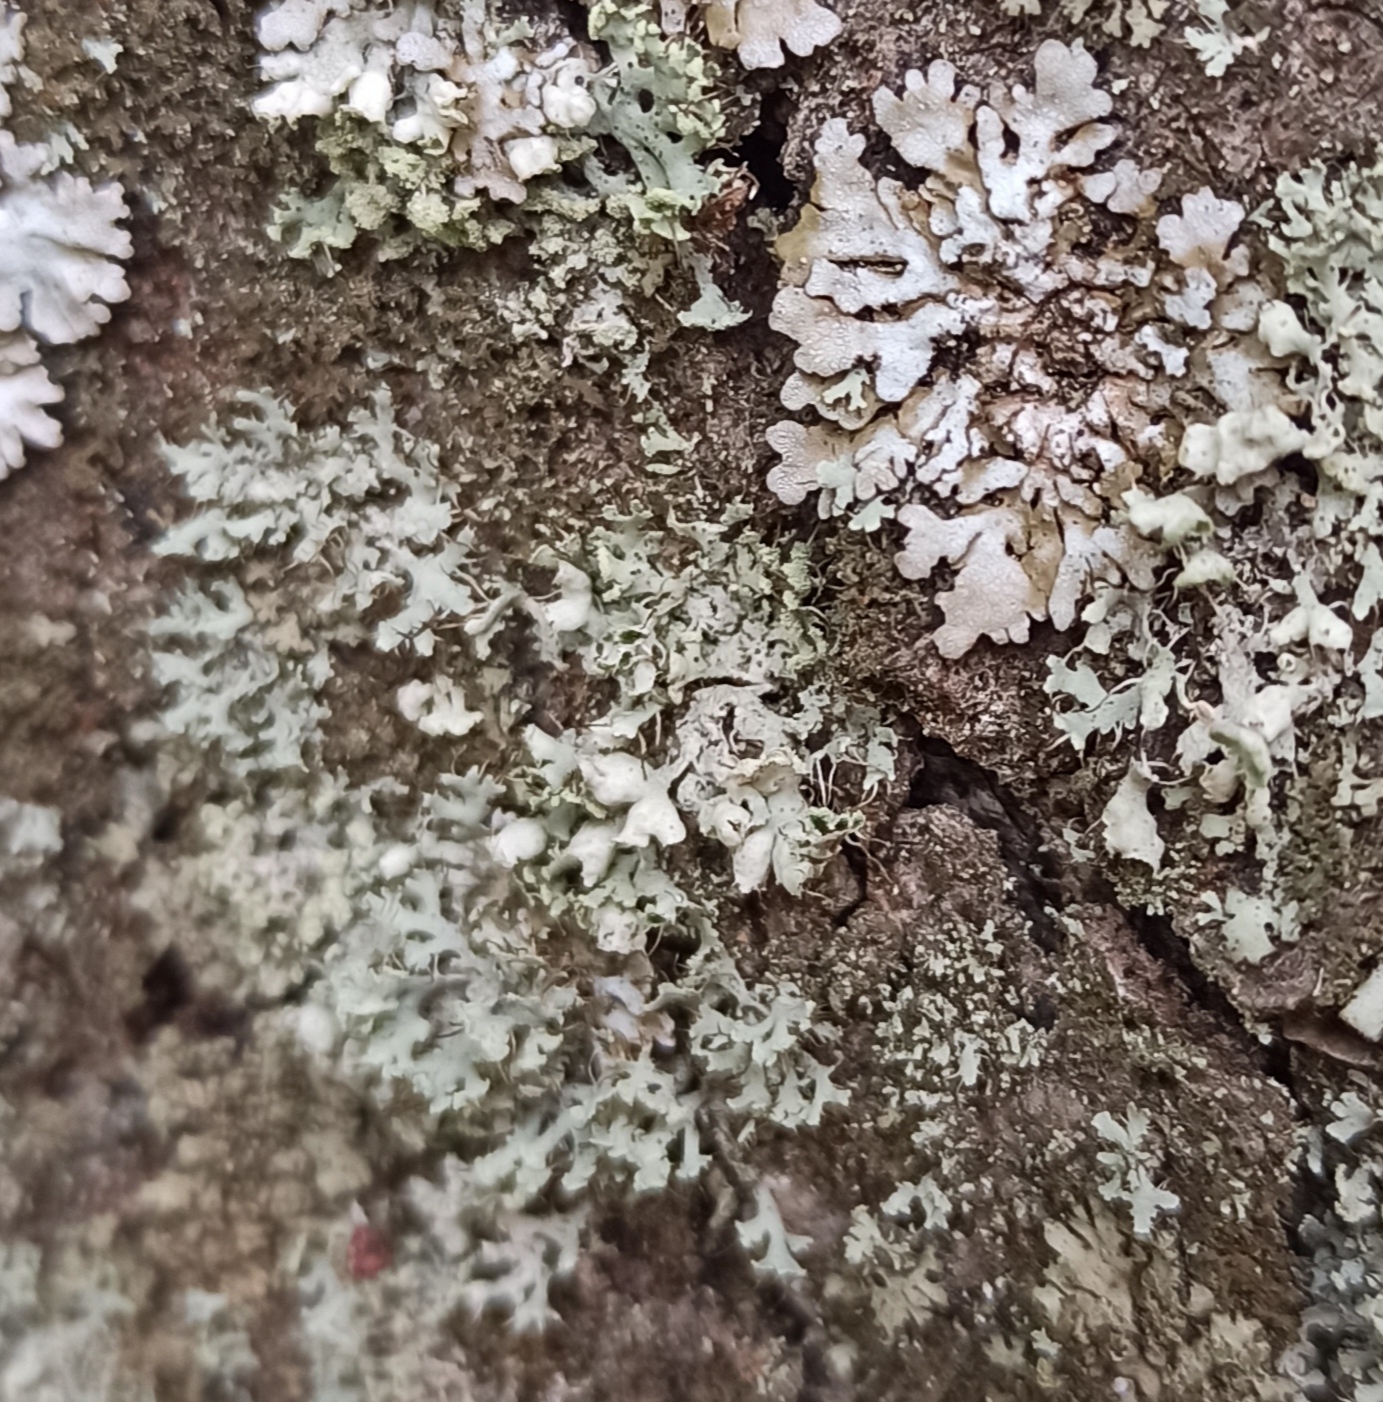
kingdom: Fungi
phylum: Ascomycota
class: Lecanoromycetes
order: Caliciales
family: Physciaceae
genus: Physcia
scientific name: Physcia adscendens
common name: Hooded rosette lichen
